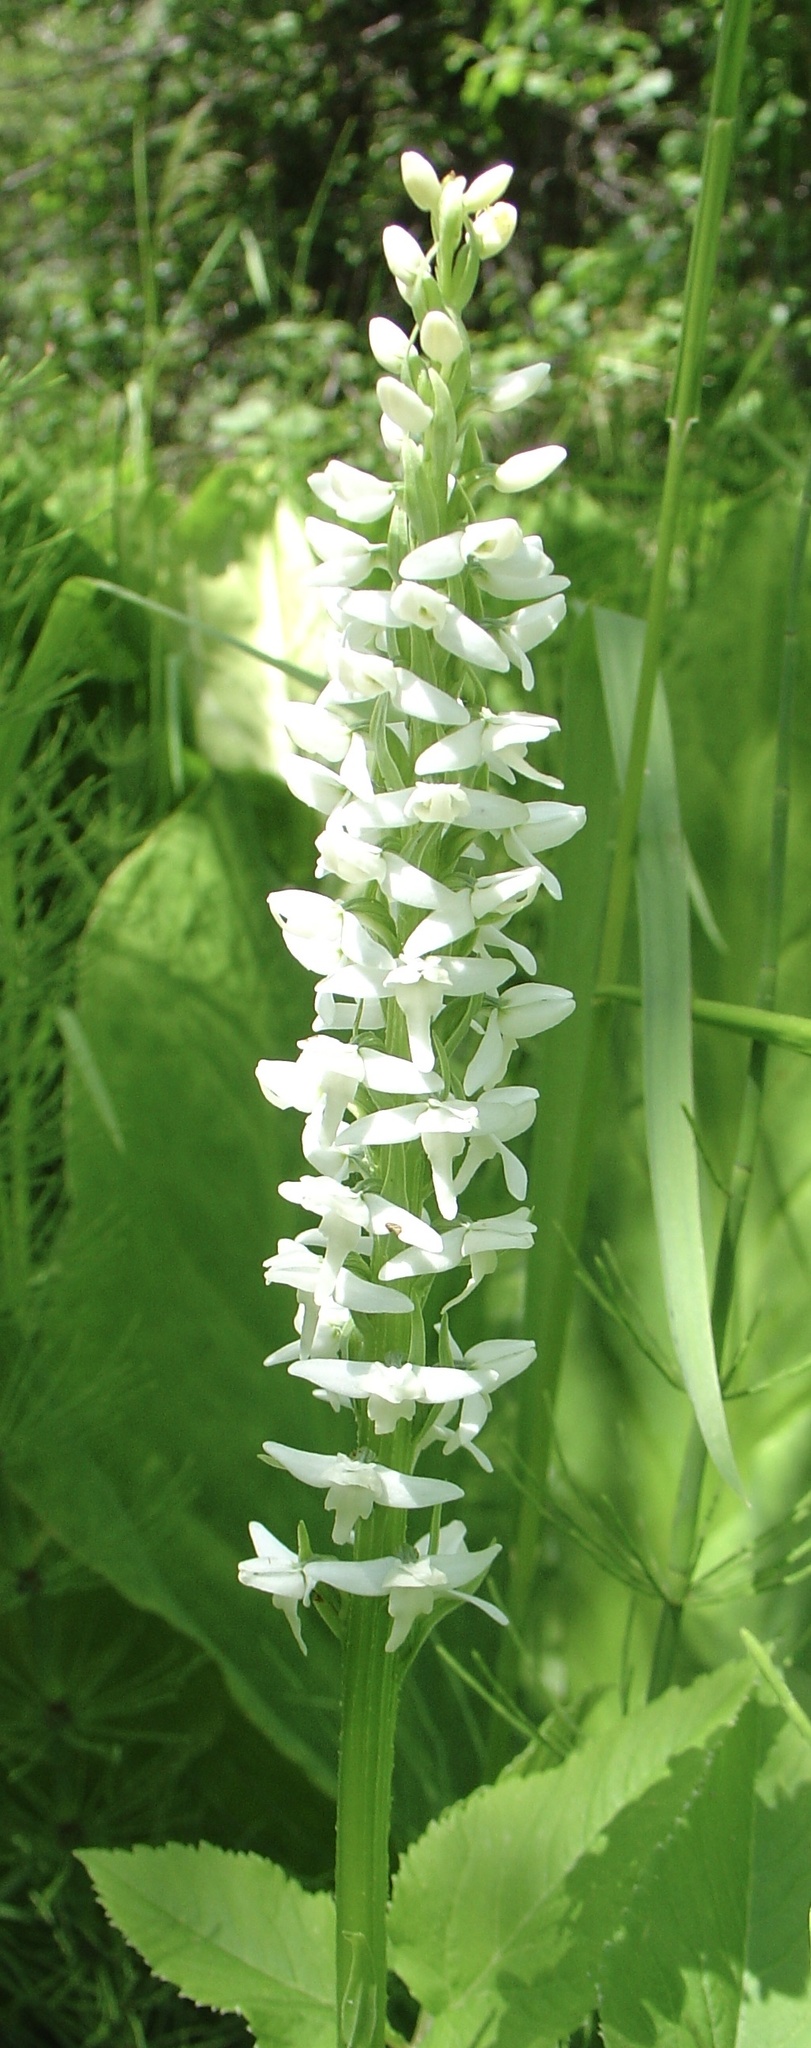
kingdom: Plantae
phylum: Tracheophyta
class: Liliopsida
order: Asparagales
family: Orchidaceae
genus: Platanthera
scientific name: Platanthera dilatata
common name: Bog candles
